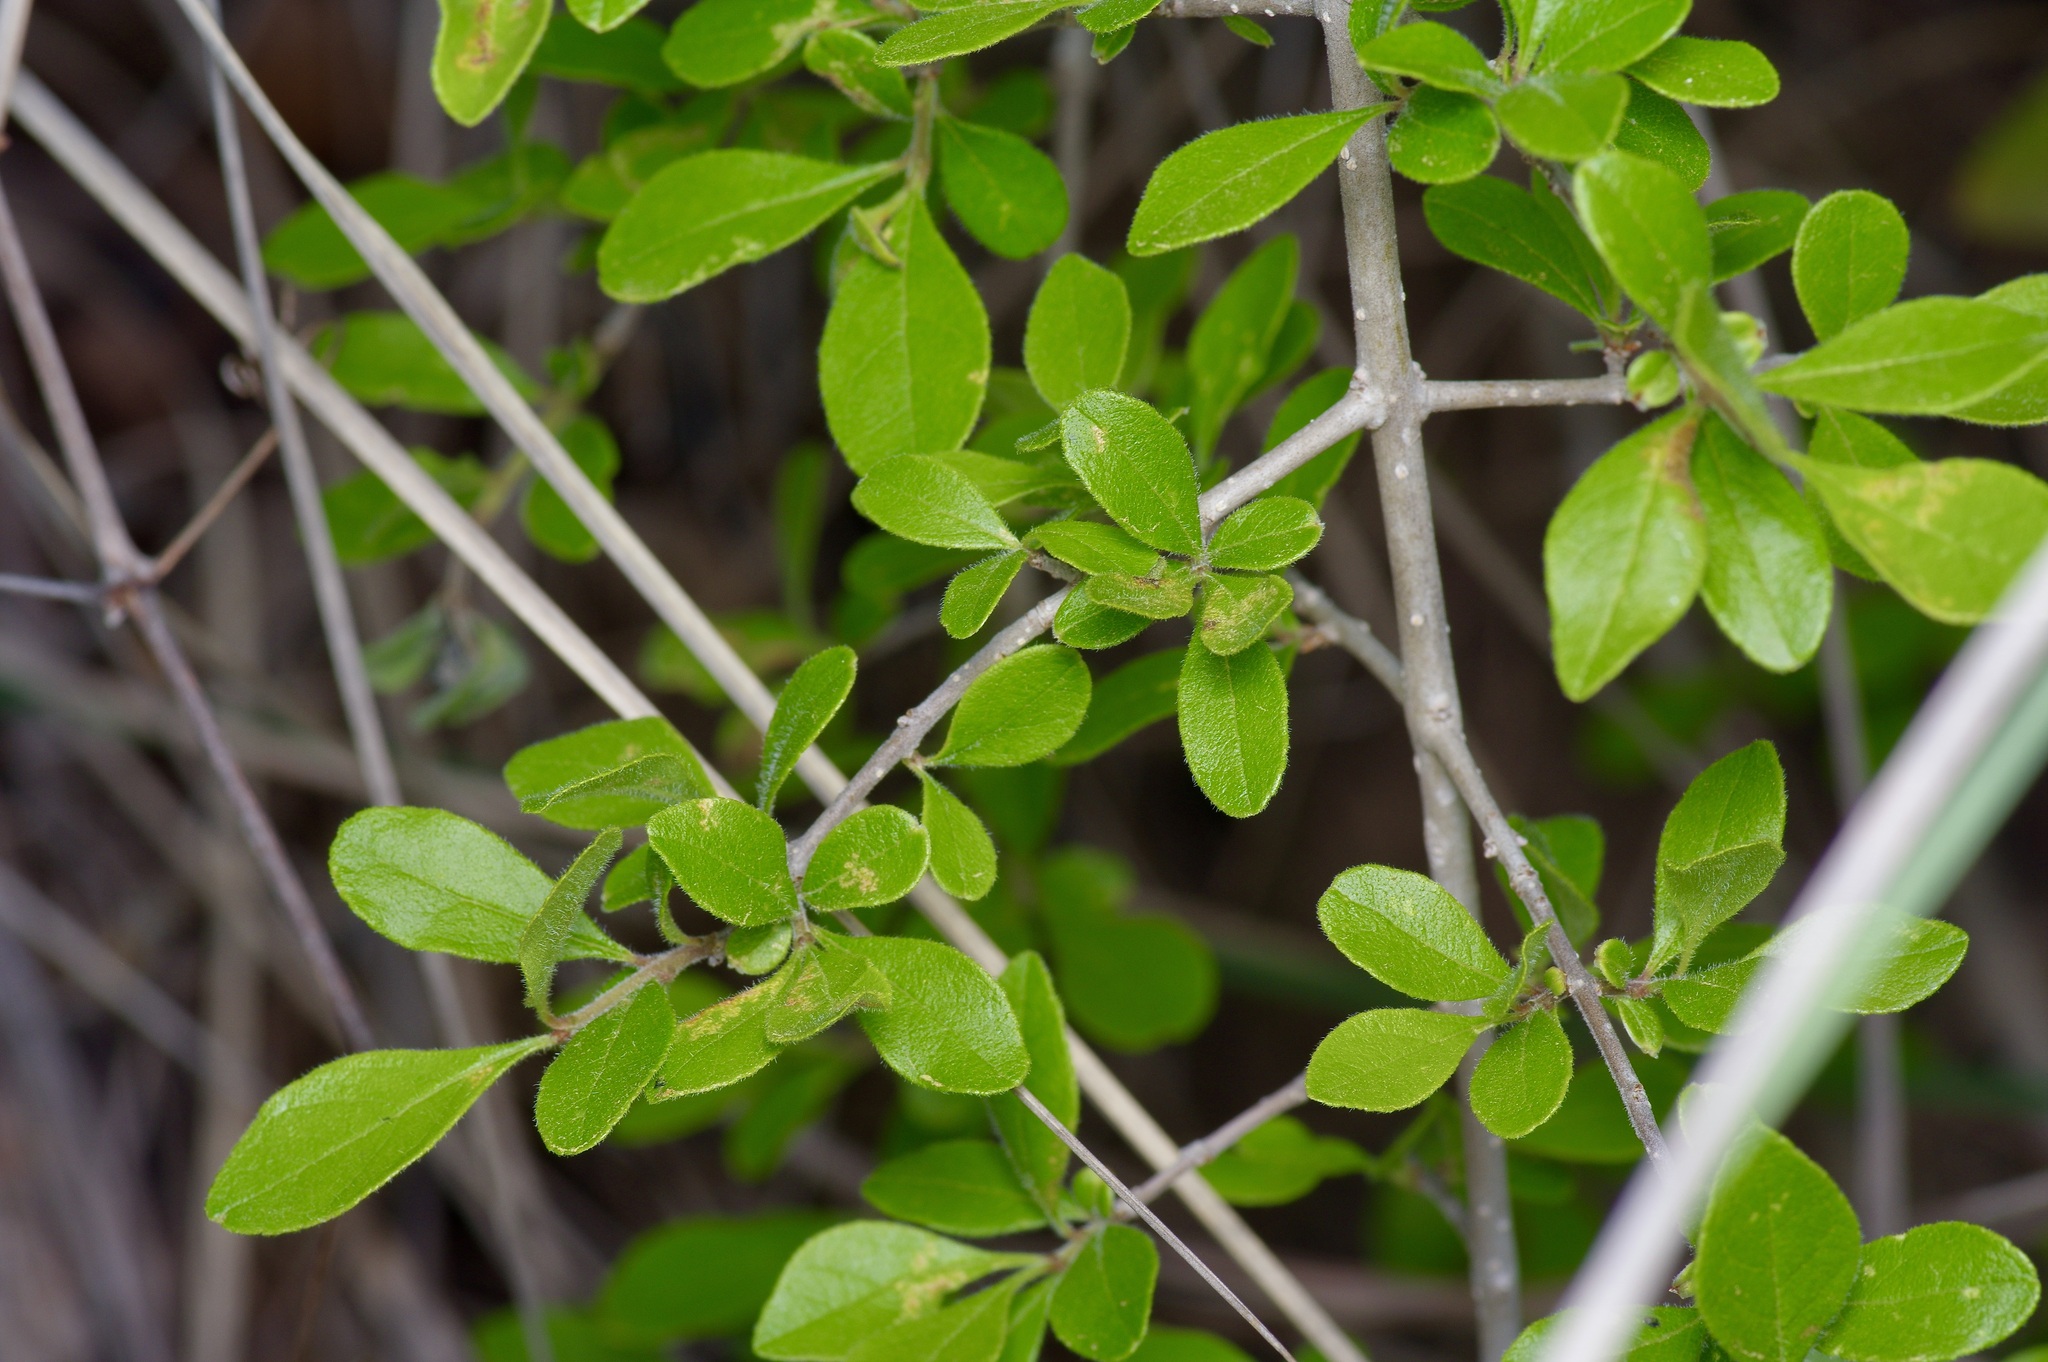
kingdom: Plantae
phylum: Tracheophyta
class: Magnoliopsida
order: Lamiales
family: Oleaceae
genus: Forestiera
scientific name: Forestiera pubescens
